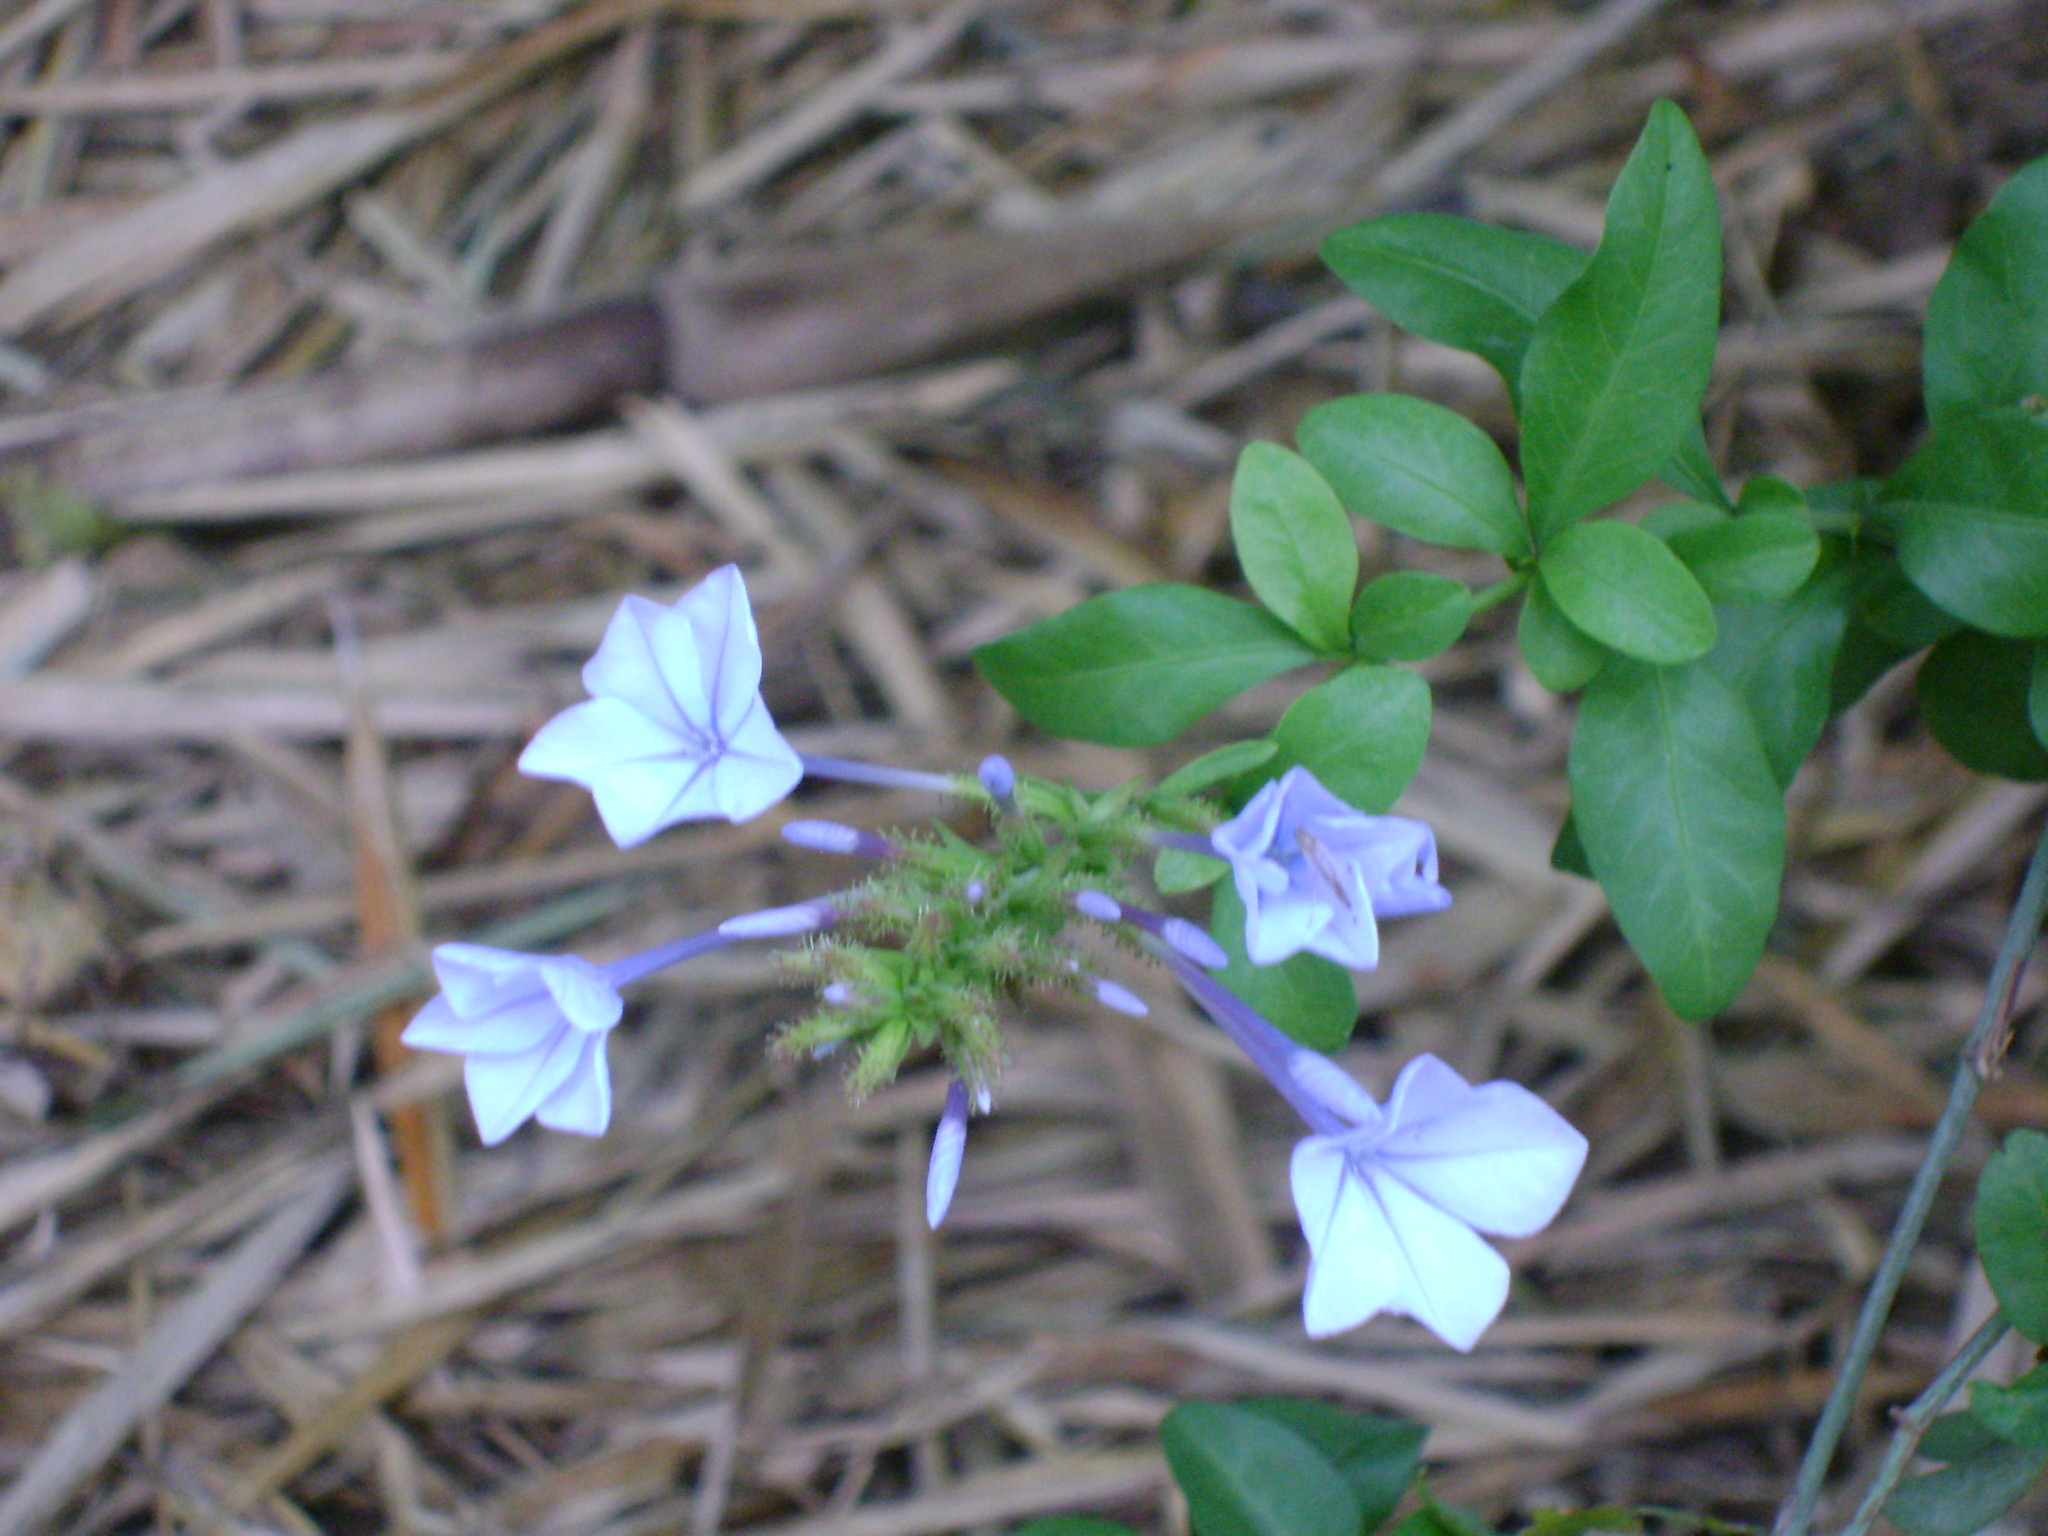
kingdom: Plantae
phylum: Tracheophyta
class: Magnoliopsida
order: Caryophyllales
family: Plumbaginaceae
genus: Plumbago
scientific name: Plumbago auriculata
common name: Cape leadwort
